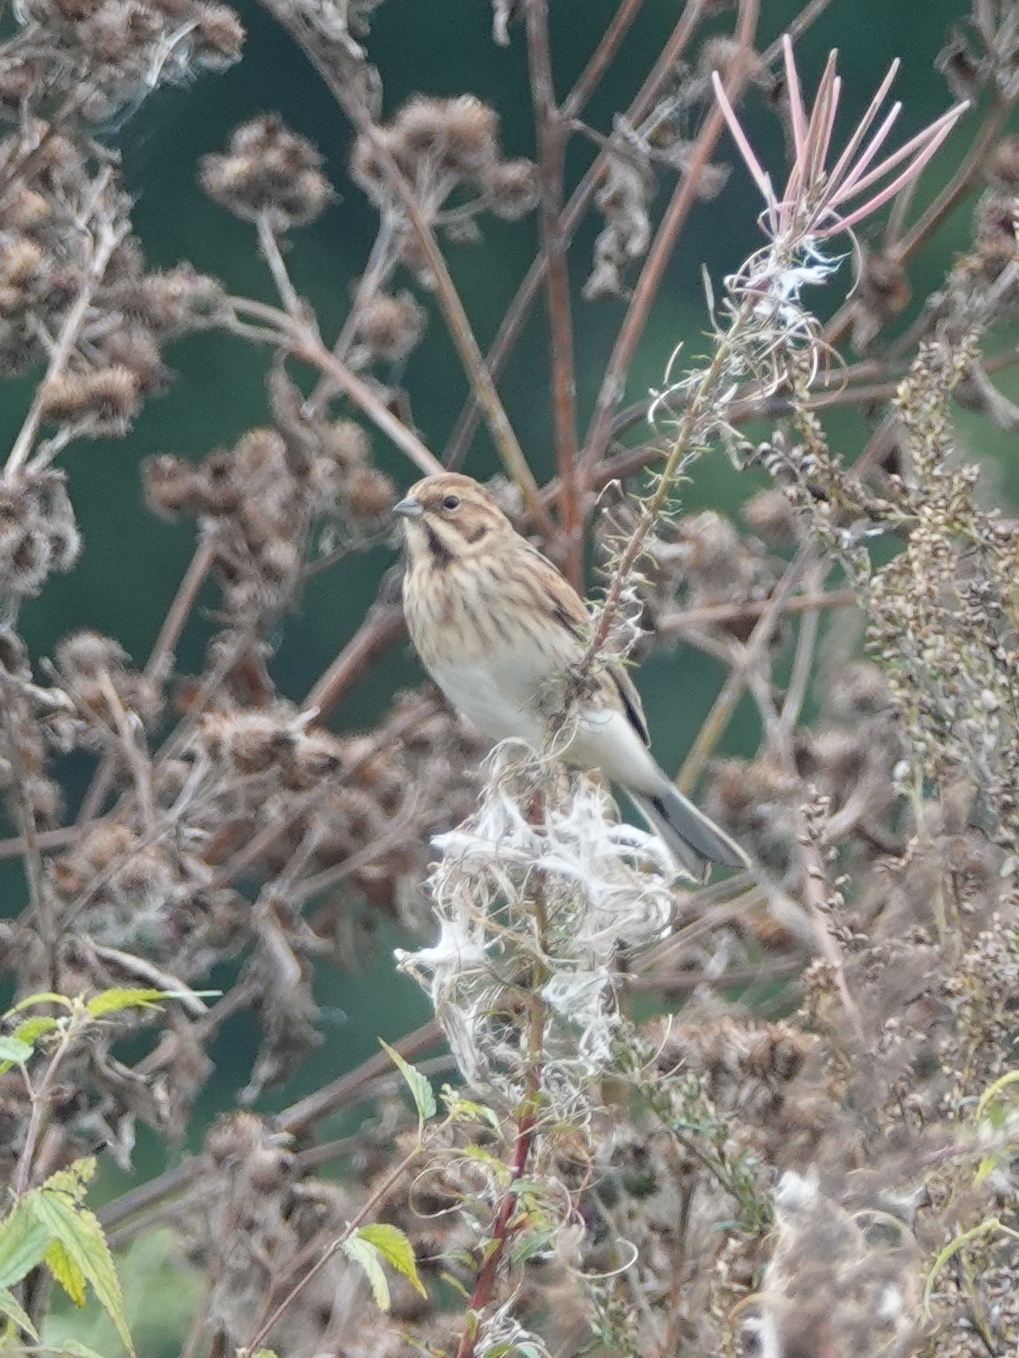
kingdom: Animalia
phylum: Chordata
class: Aves
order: Passeriformes
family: Emberizidae
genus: Emberiza
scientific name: Emberiza schoeniclus
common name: Reed bunting
